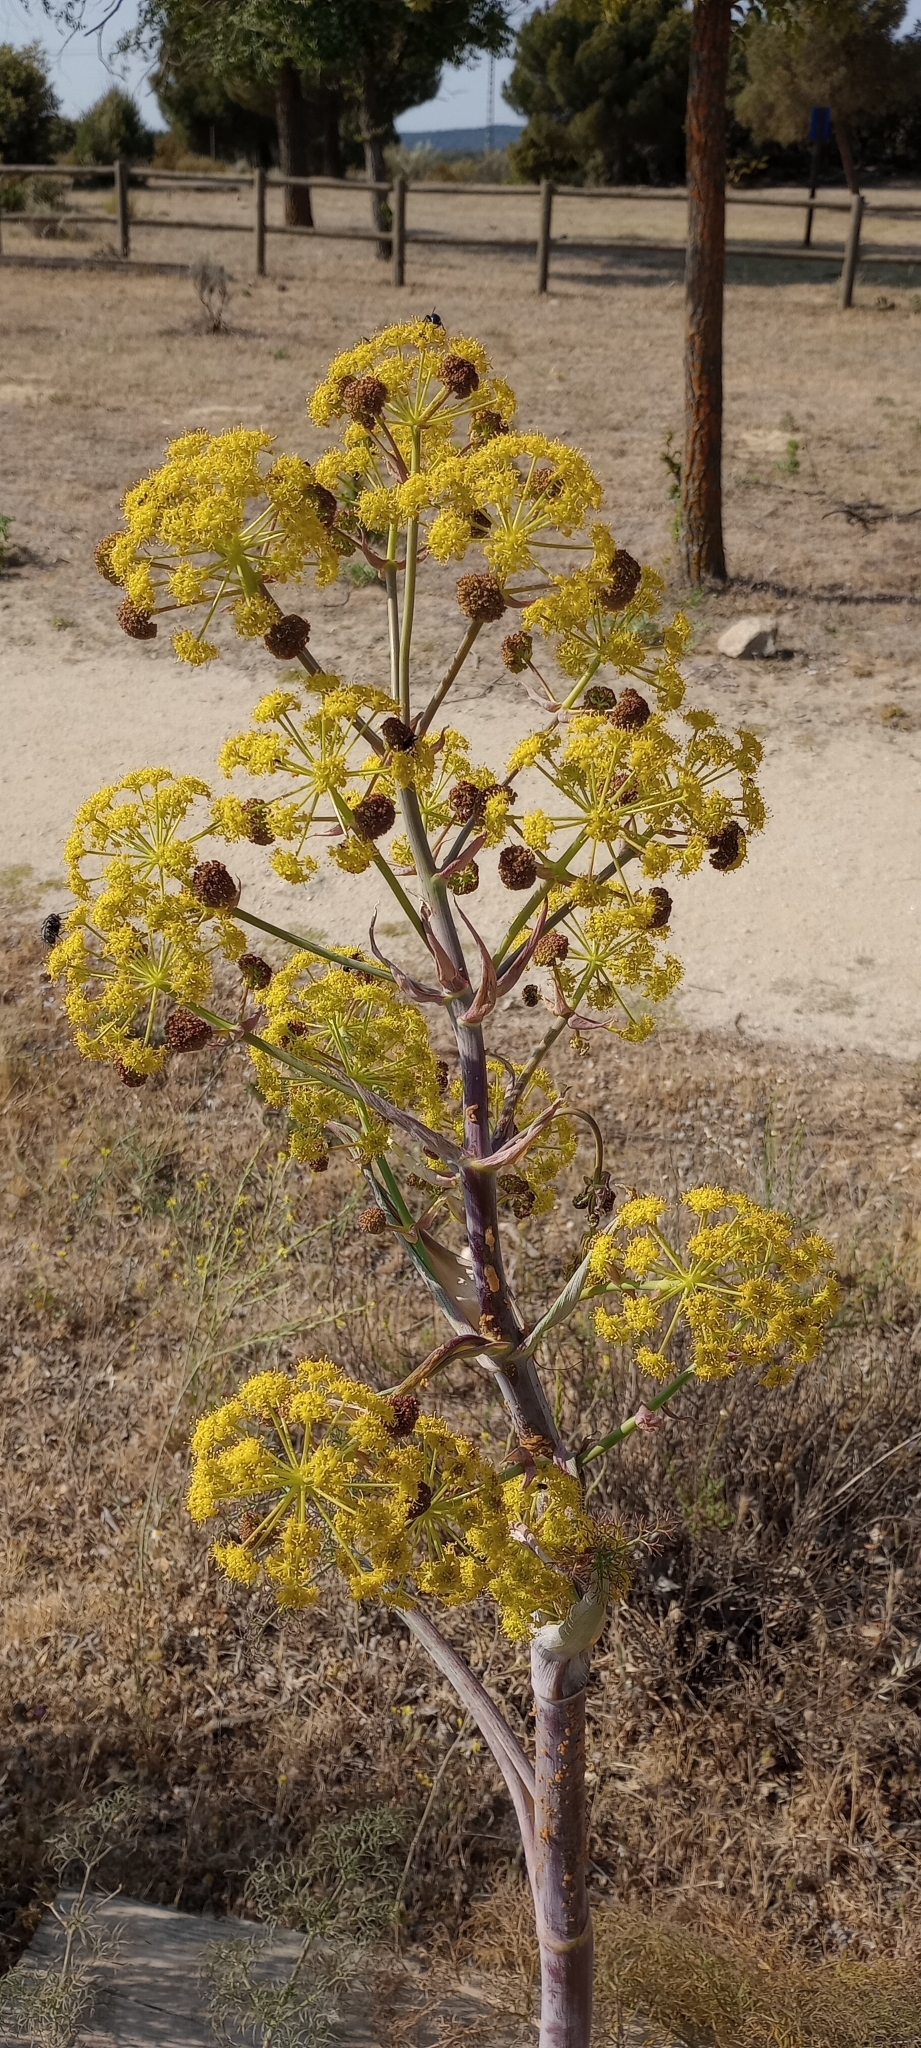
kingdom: Plantae
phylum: Tracheophyta
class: Magnoliopsida
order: Apiales
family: Apiaceae
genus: Ferula
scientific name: Ferula communis
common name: Giant fennel
